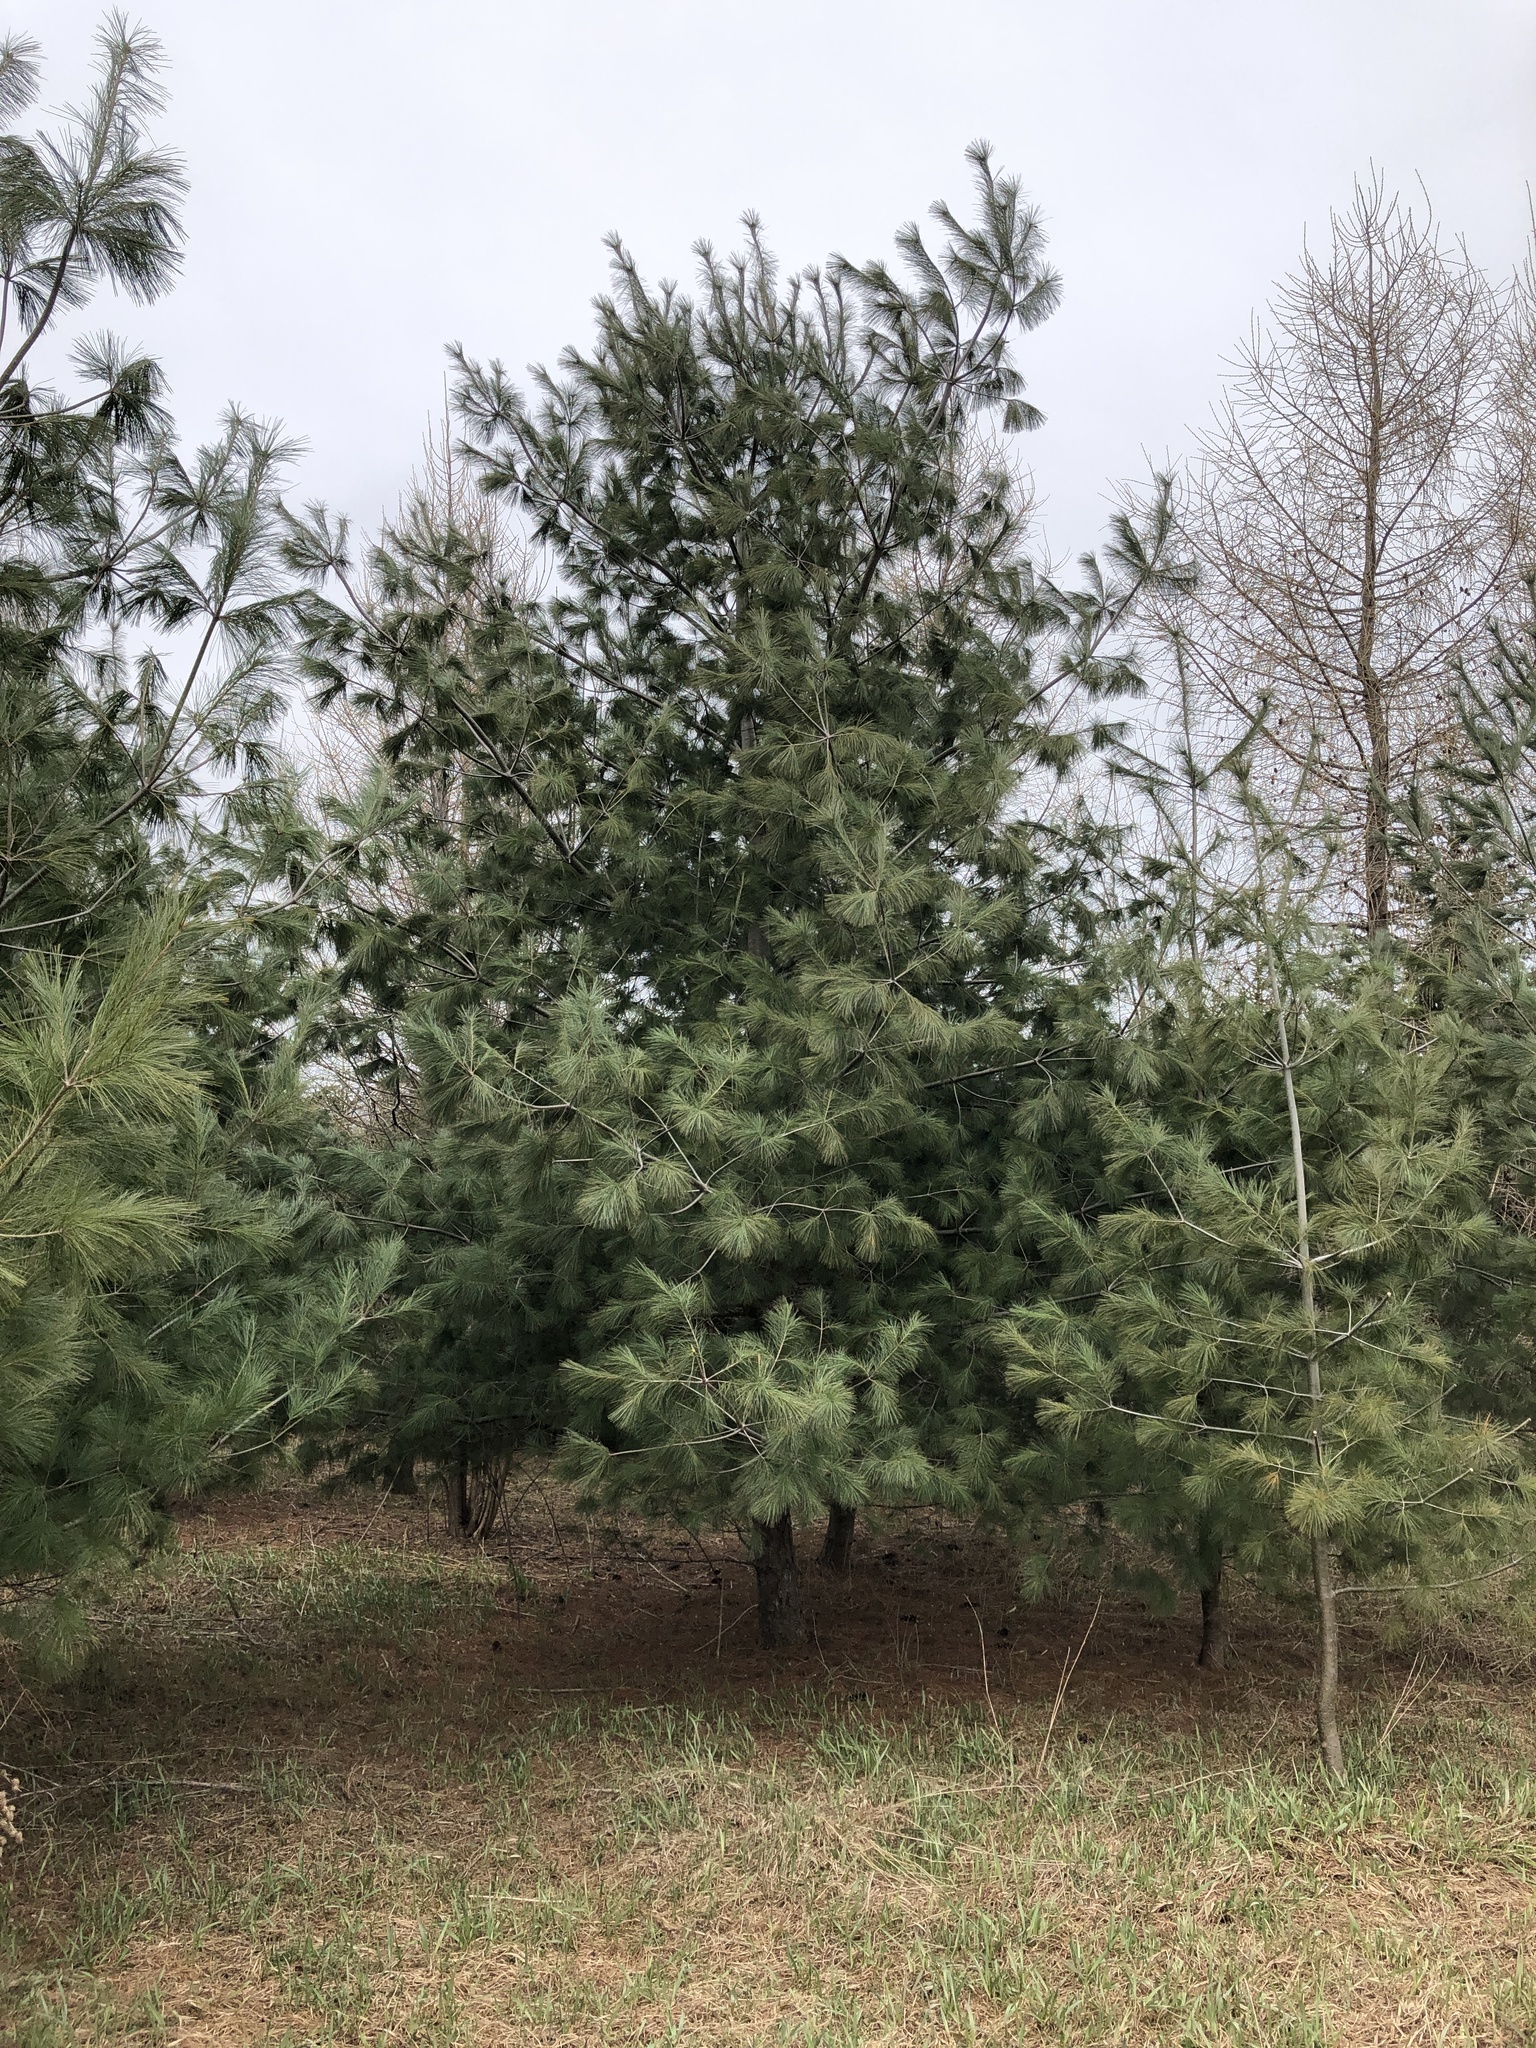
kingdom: Plantae
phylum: Tracheophyta
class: Pinopsida
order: Pinales
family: Pinaceae
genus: Pinus
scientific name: Pinus strobus
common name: Weymouth pine
